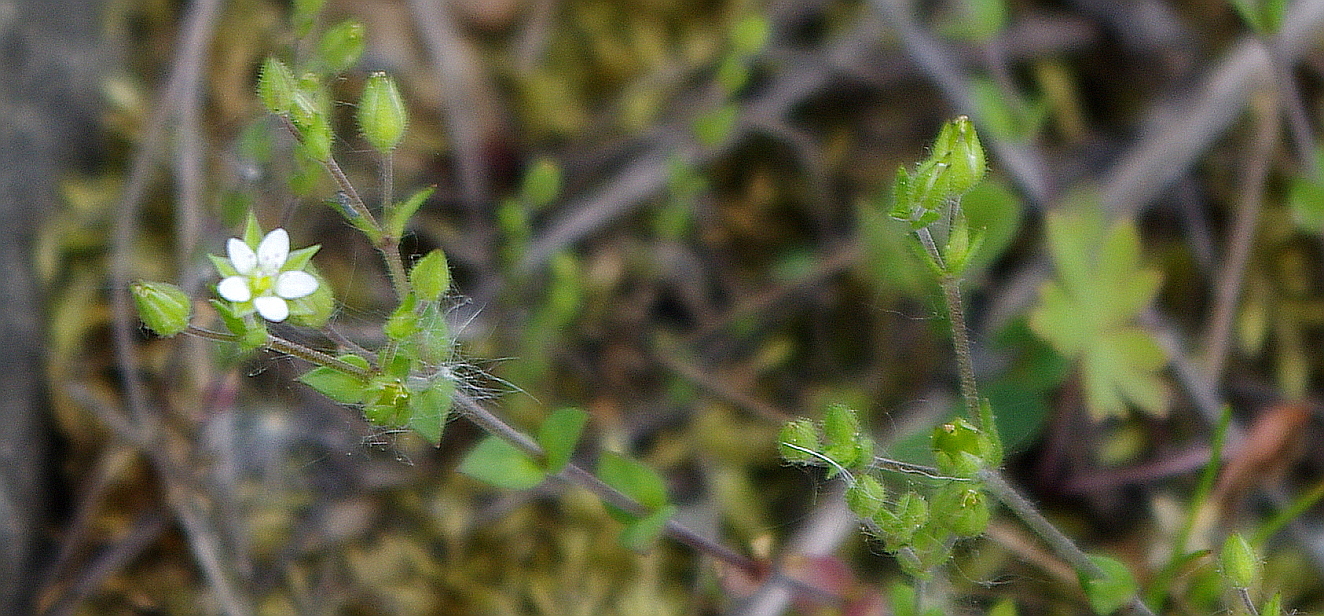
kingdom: Plantae
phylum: Tracheophyta
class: Magnoliopsida
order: Caryophyllales
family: Caryophyllaceae
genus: Arenaria
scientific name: Arenaria serpyllifolia
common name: Thyme-leaved sandwort
